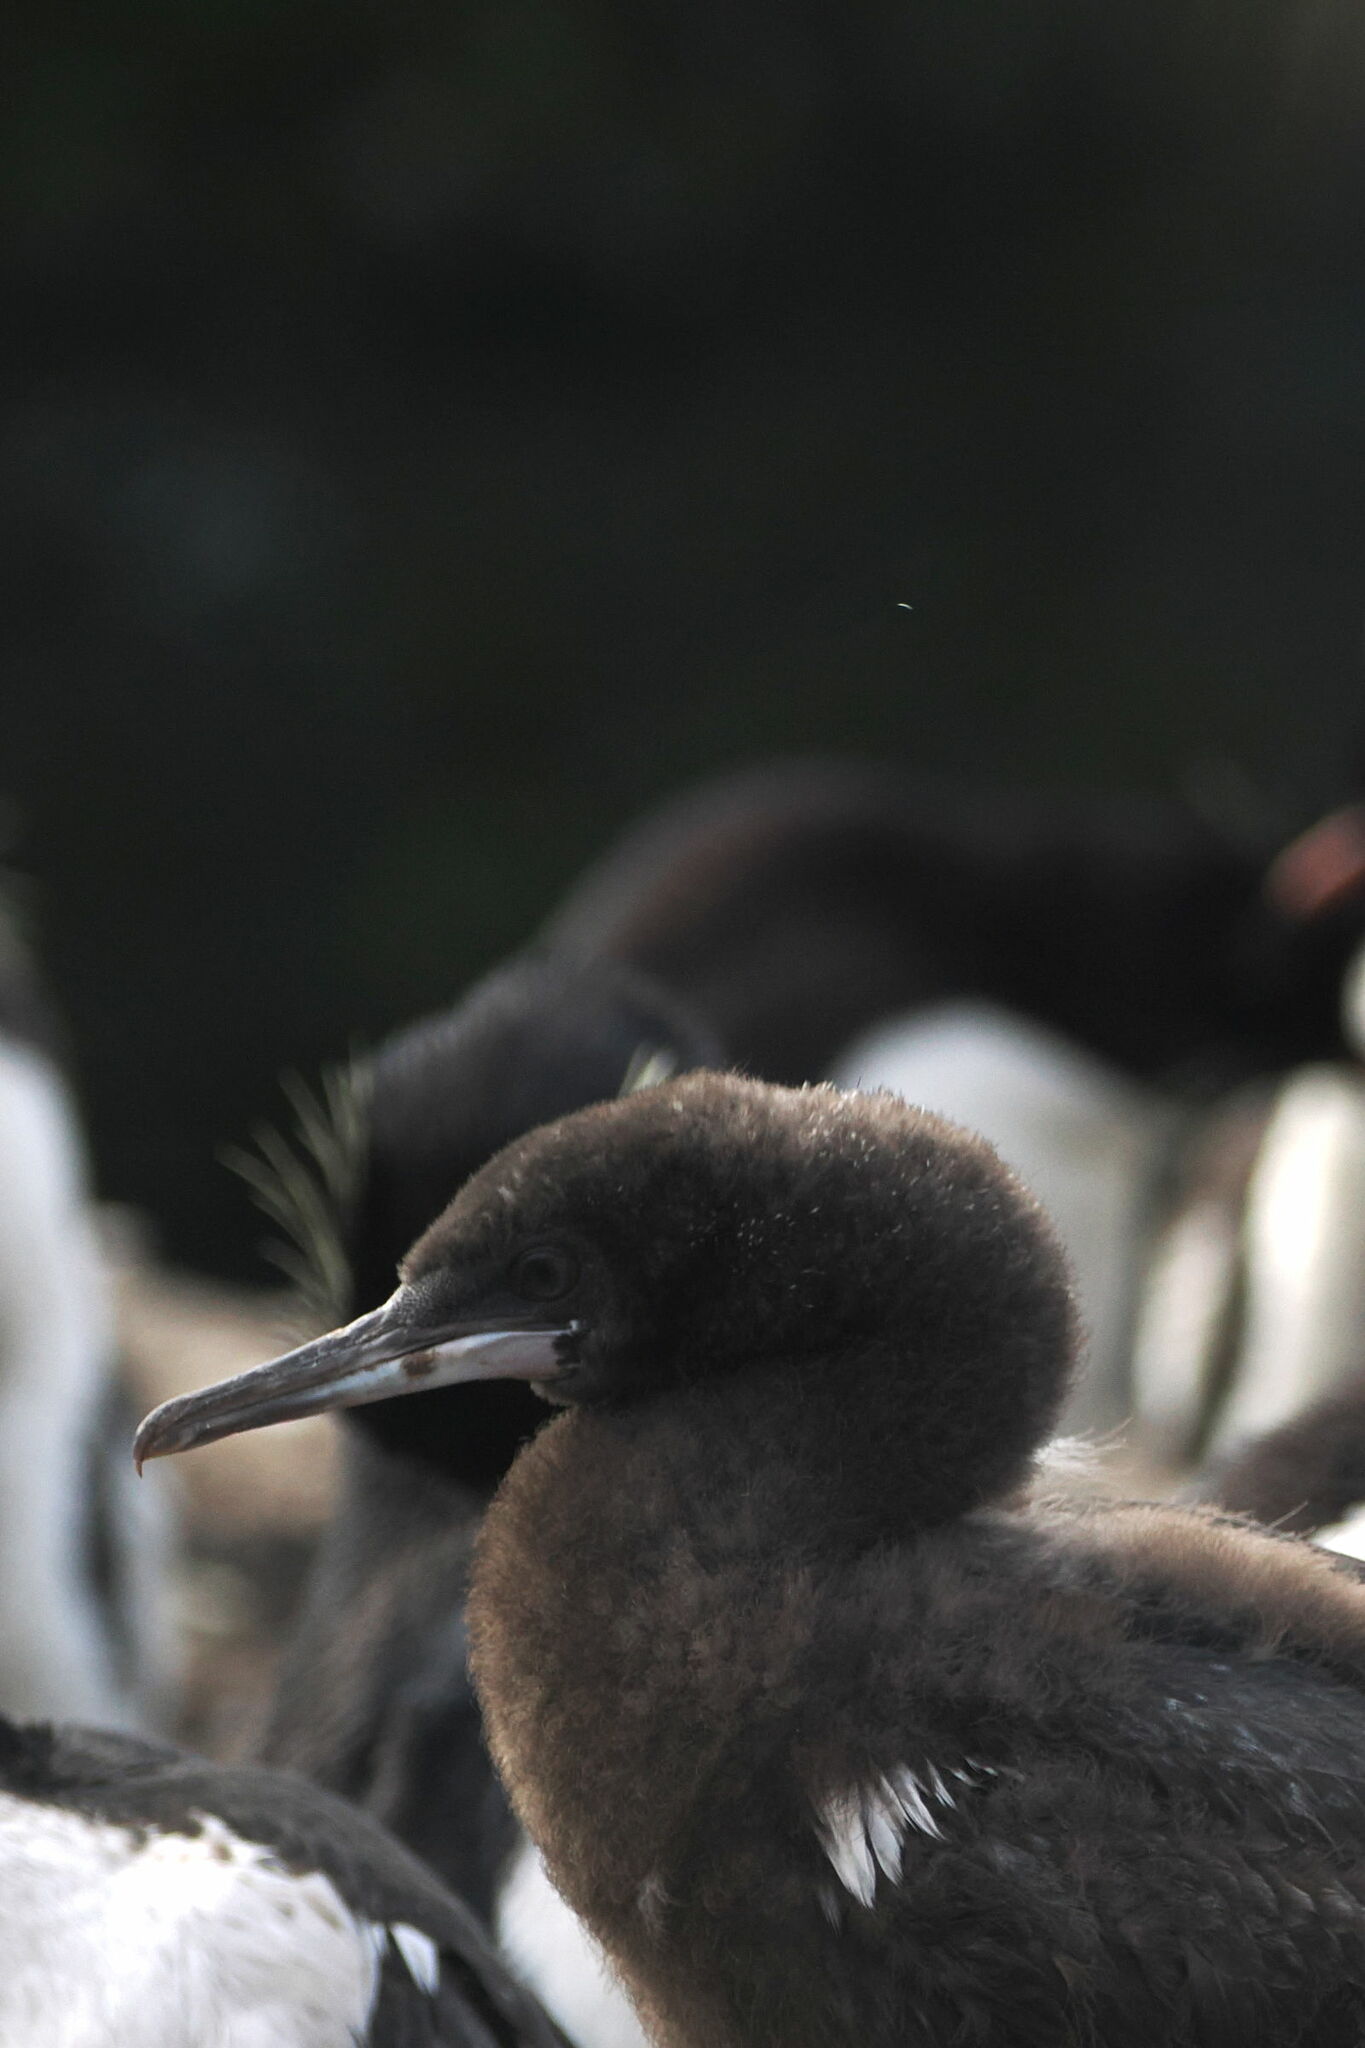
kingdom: Animalia
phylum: Chordata
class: Aves
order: Suliformes
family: Phalacrocoracidae
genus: Phalacrocorax
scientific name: Phalacrocorax magellanicus
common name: Rock shag
